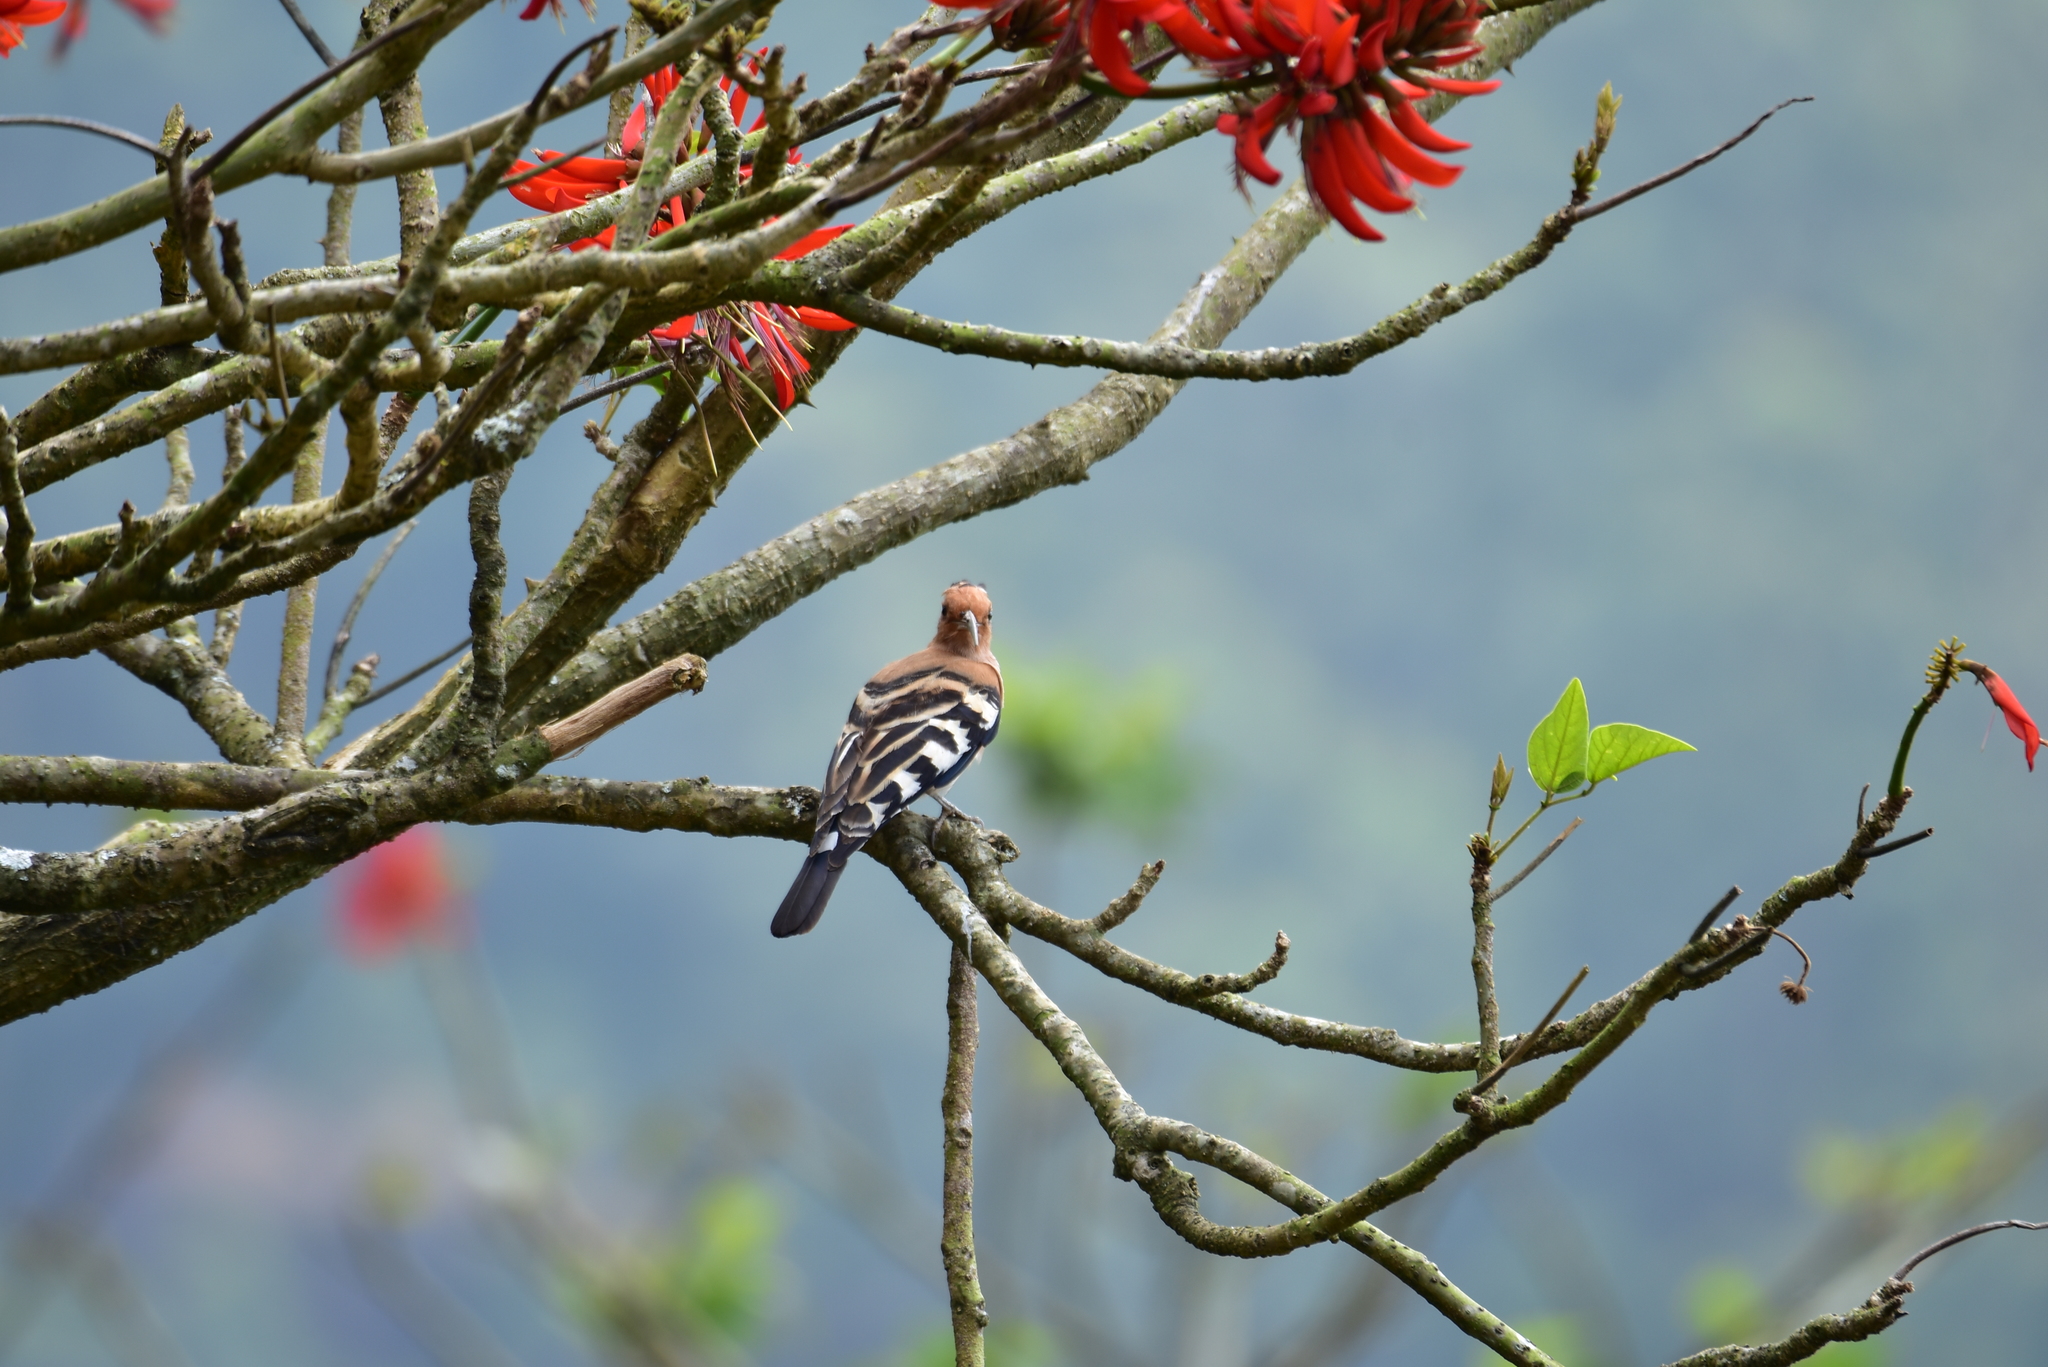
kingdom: Animalia
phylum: Chordata
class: Aves
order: Bucerotiformes
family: Upupidae
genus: Upupa
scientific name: Upupa epops
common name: Eurasian hoopoe
